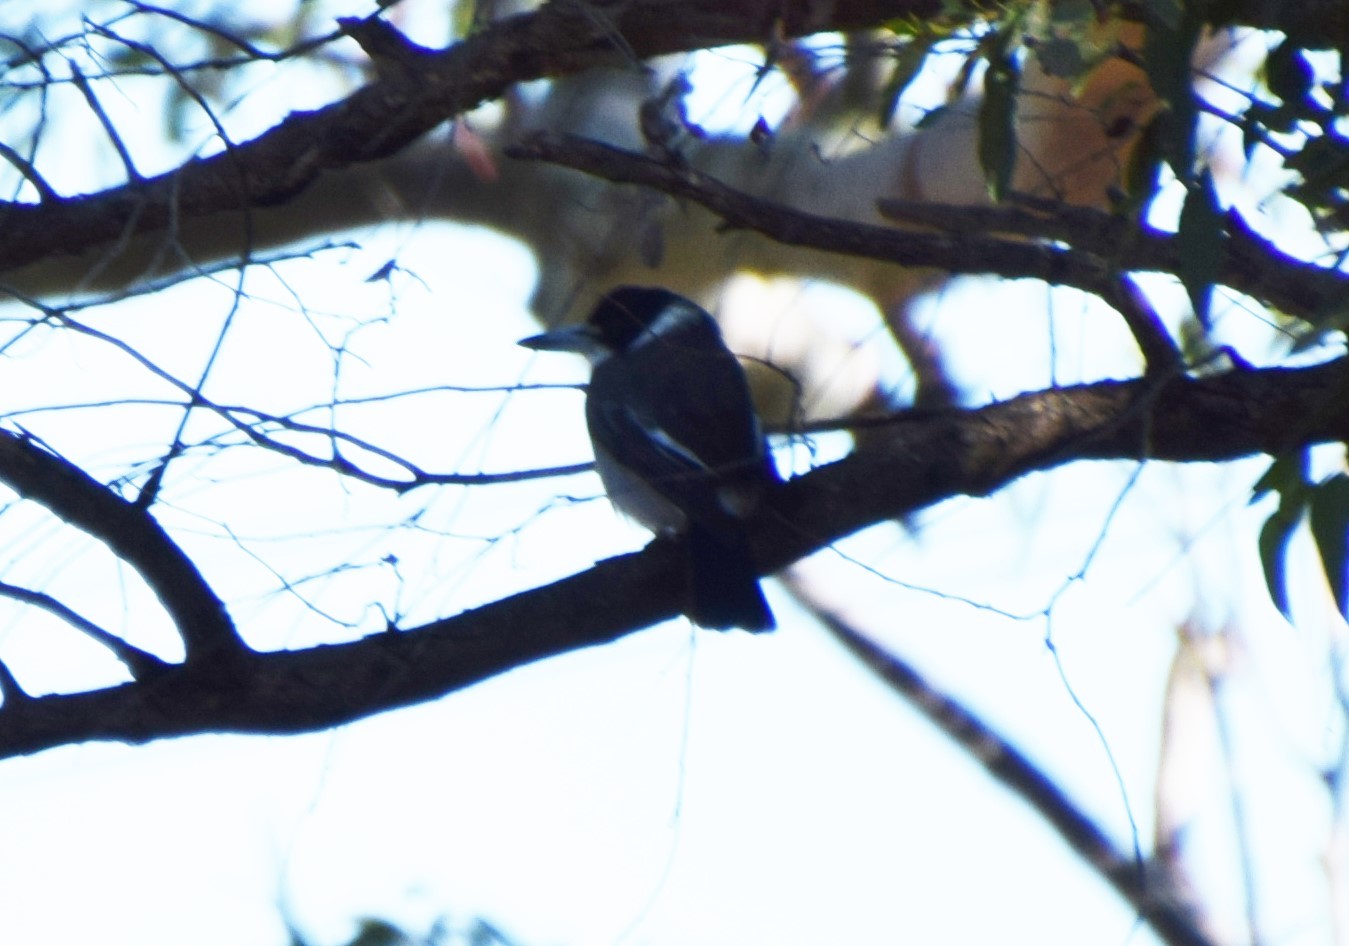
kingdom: Animalia
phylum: Chordata
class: Aves
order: Passeriformes
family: Cracticidae
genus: Cracticus
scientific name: Cracticus torquatus
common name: Grey butcherbird
